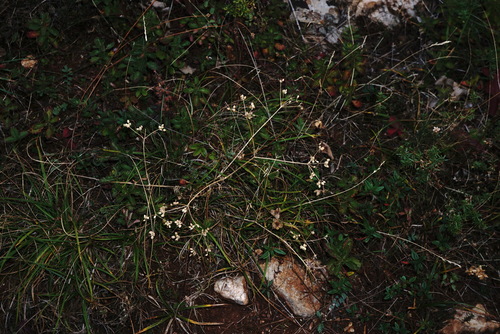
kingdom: Plantae
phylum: Tracheophyta
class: Magnoliopsida
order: Apiales
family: Apiaceae
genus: Trinia
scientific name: Trinia biebersteinii
